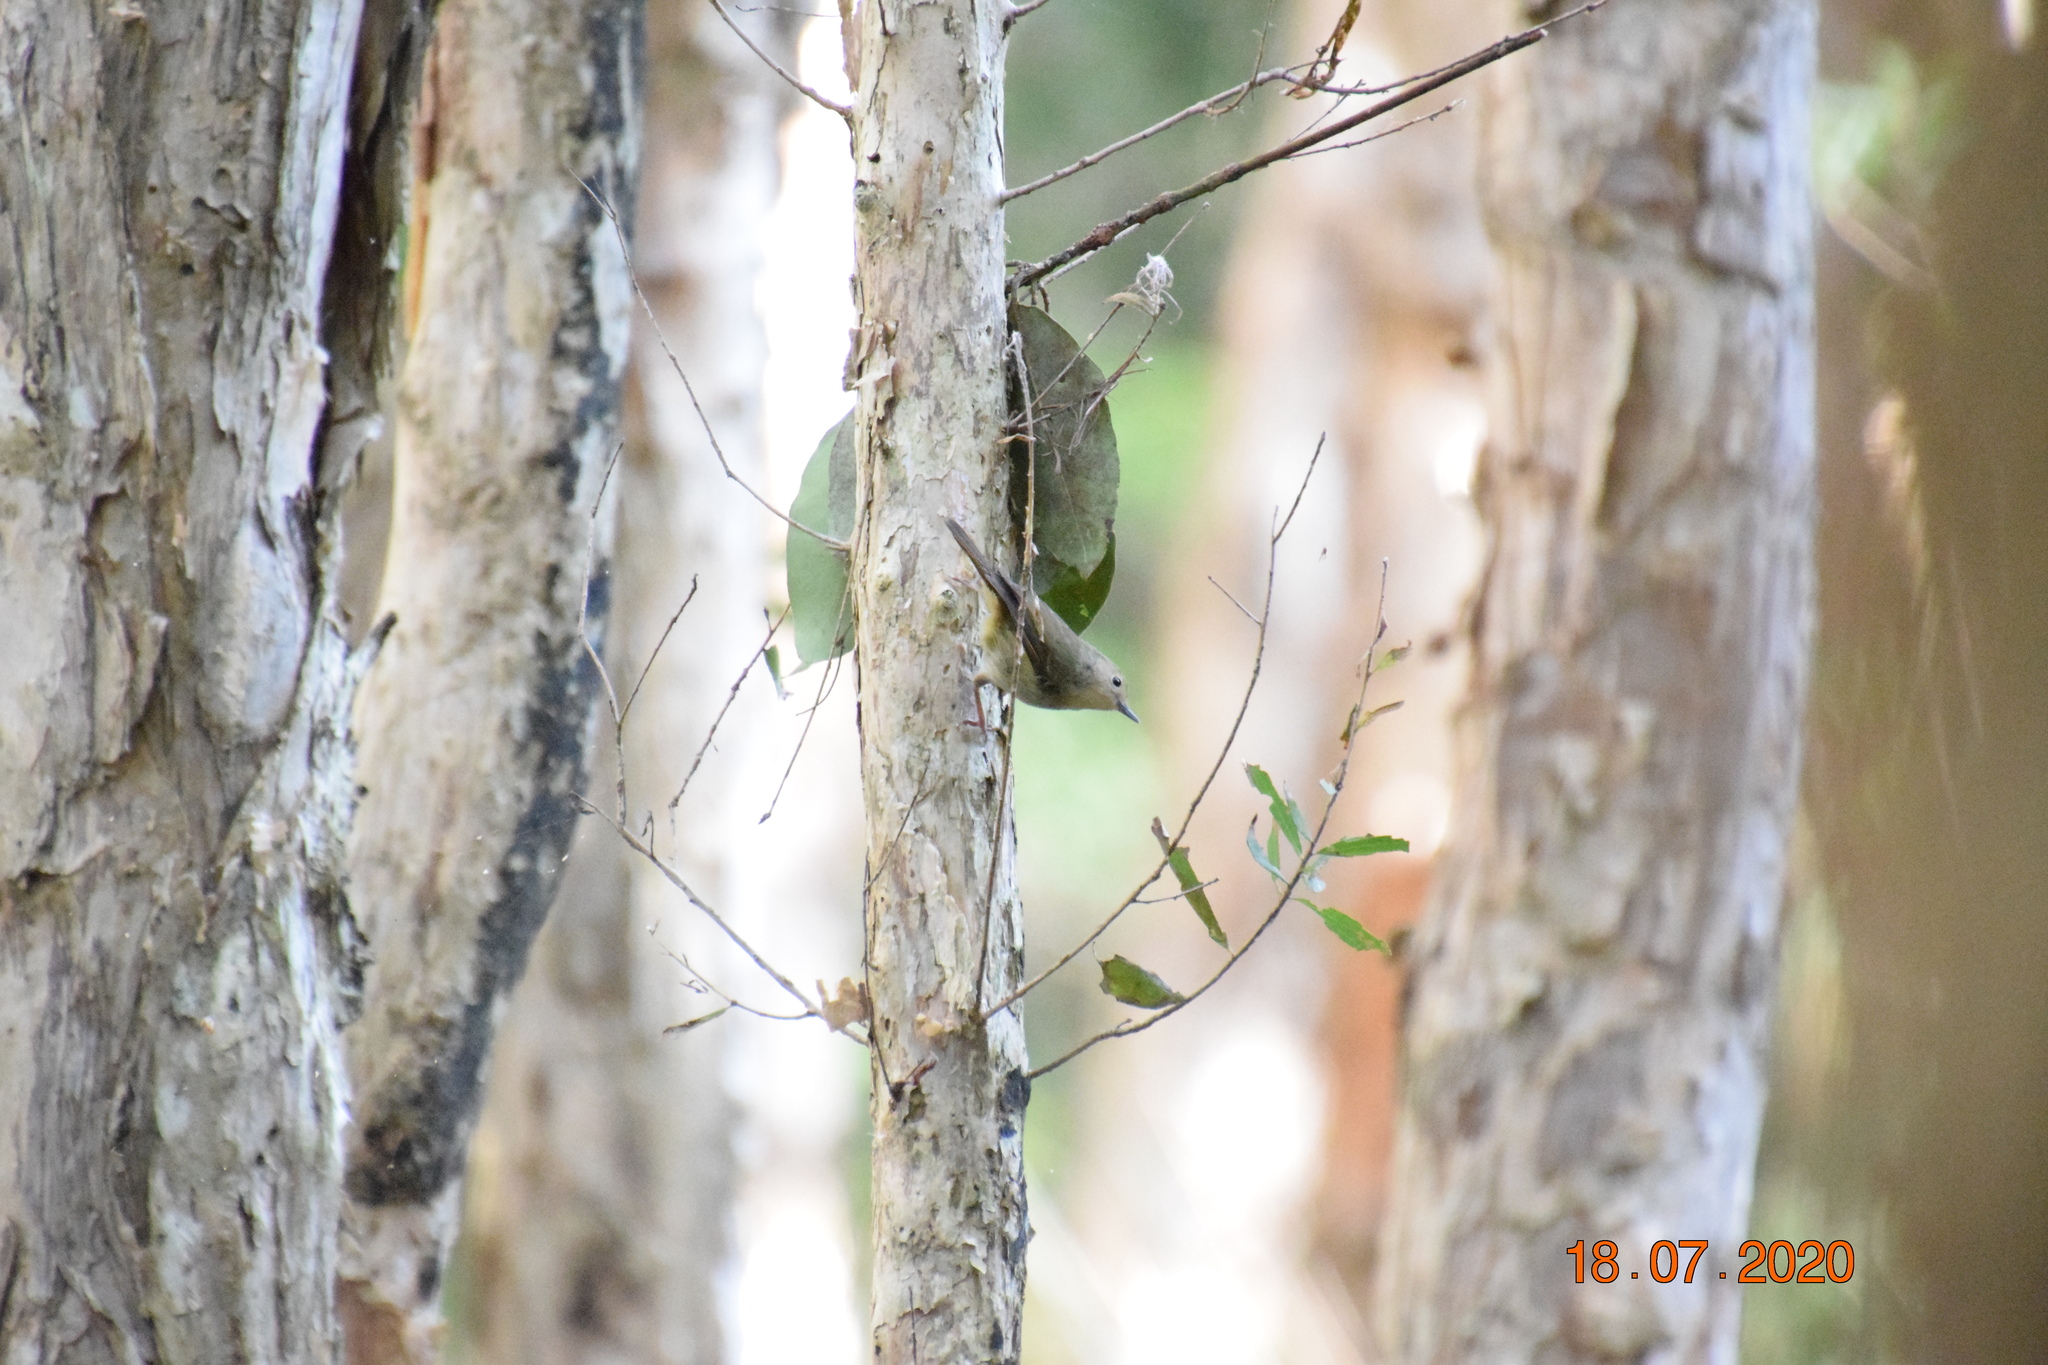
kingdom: Animalia
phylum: Chordata
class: Aves
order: Passeriformes
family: Acanthizidae
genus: Sericornis
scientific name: Sericornis magnirostra
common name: Large-billed scrubwren
